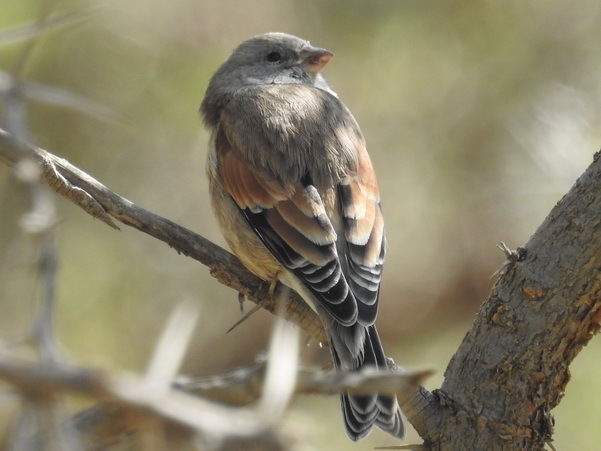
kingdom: Animalia
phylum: Chordata
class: Aves
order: Passeriformes
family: Fringillidae
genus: Linaria
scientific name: Linaria yemenensis
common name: Yemen linnet
